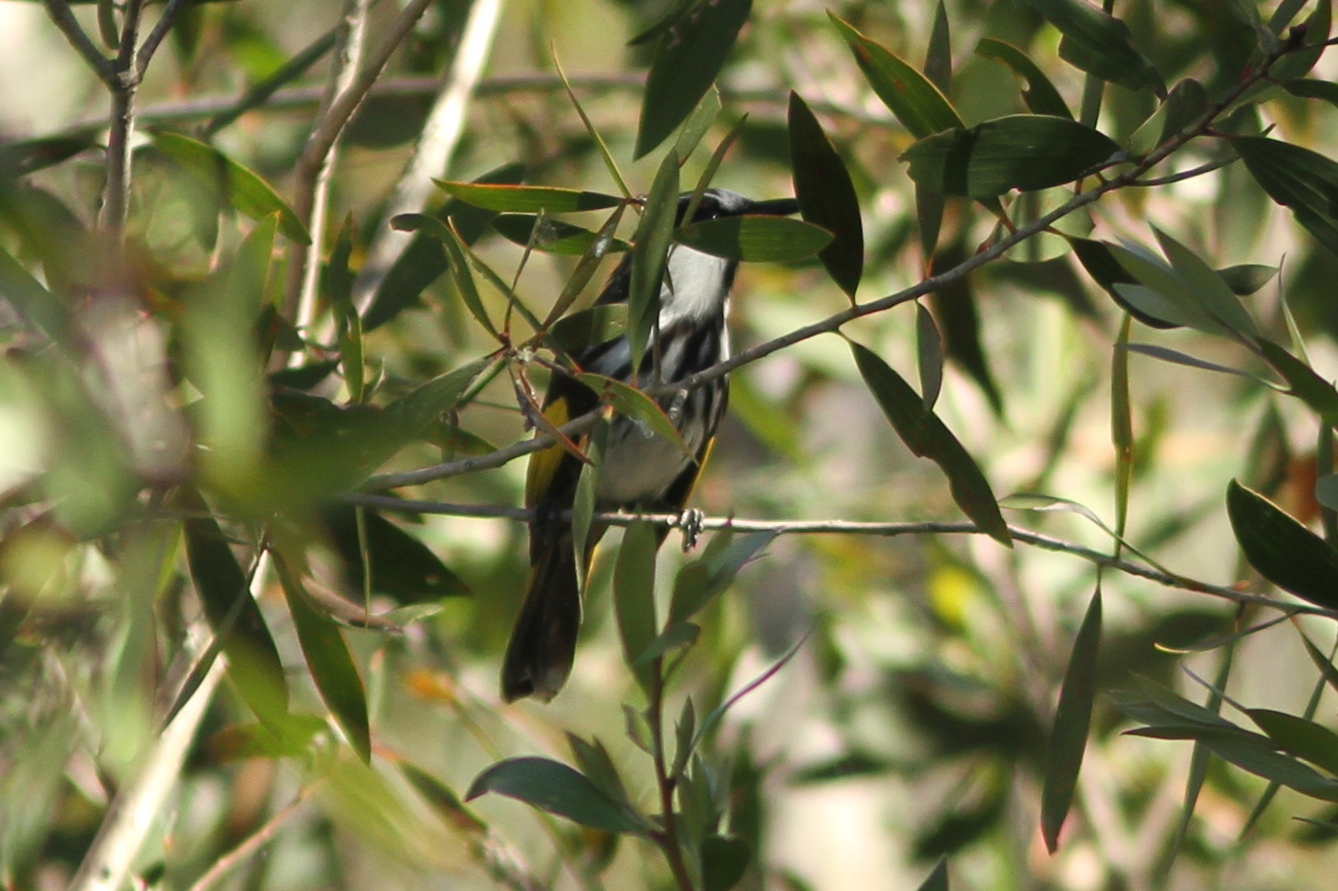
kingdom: Animalia
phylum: Chordata
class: Aves
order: Passeriformes
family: Meliphagidae
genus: Phylidonyris
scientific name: Phylidonyris niger
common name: White-cheeked honeyeater
